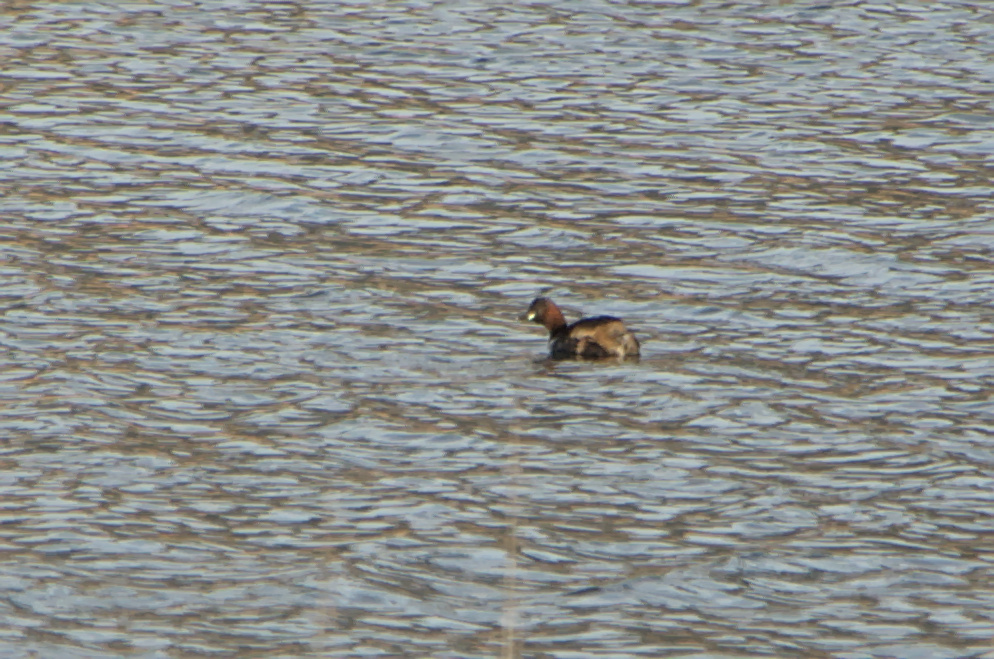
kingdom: Animalia
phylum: Chordata
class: Aves
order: Podicipediformes
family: Podicipedidae
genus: Tachybaptus
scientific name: Tachybaptus ruficollis
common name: Little grebe
